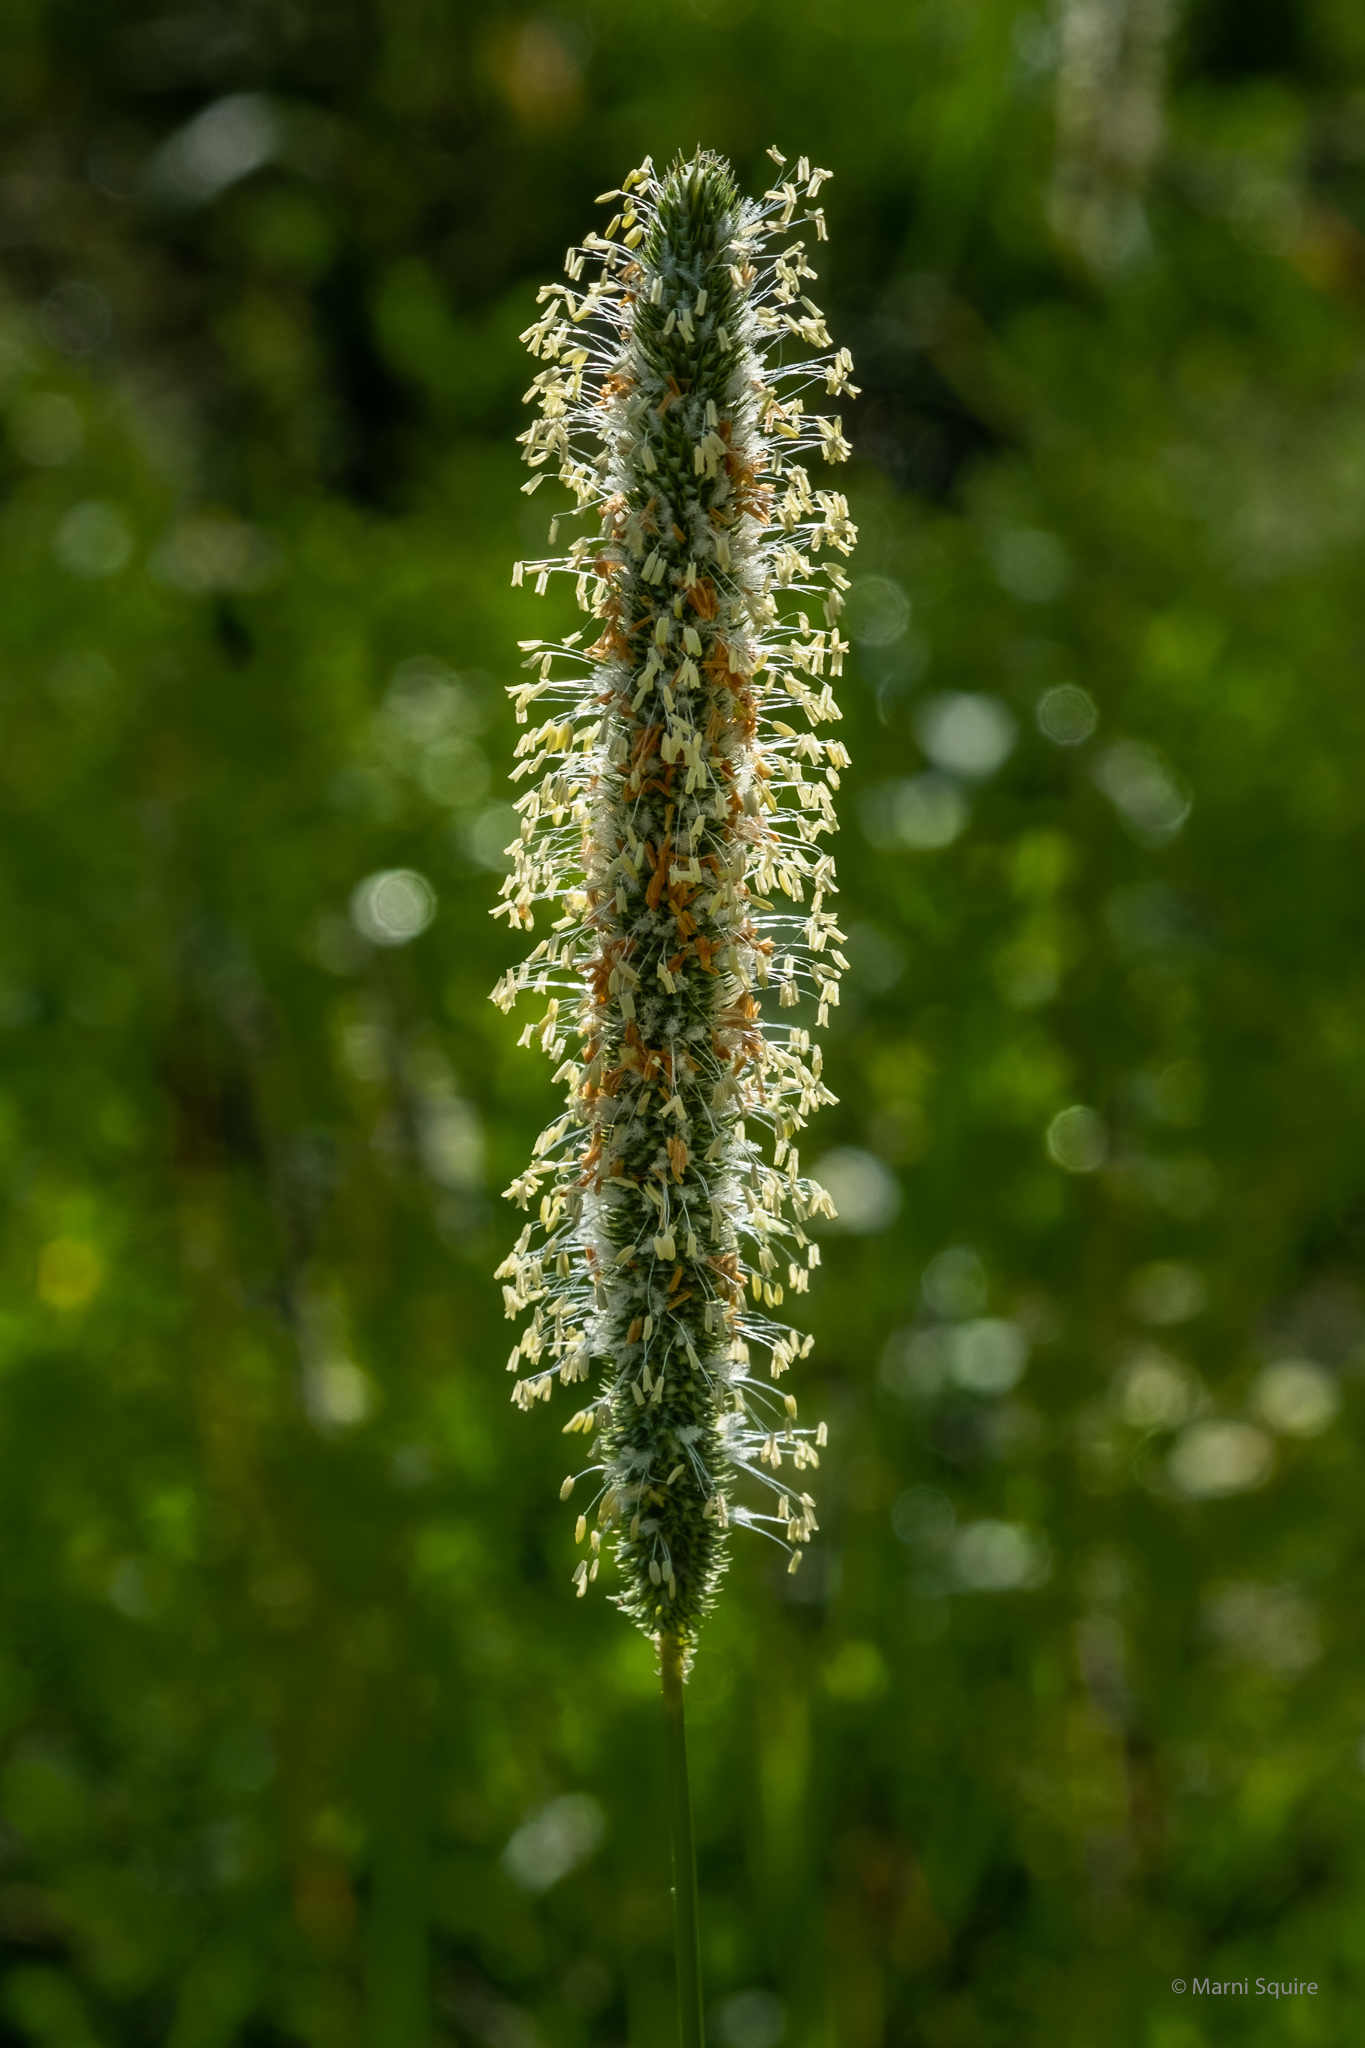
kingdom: Plantae
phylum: Tracheophyta
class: Liliopsida
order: Poales
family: Poaceae
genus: Phleum
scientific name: Phleum pratense
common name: Timothy grass
